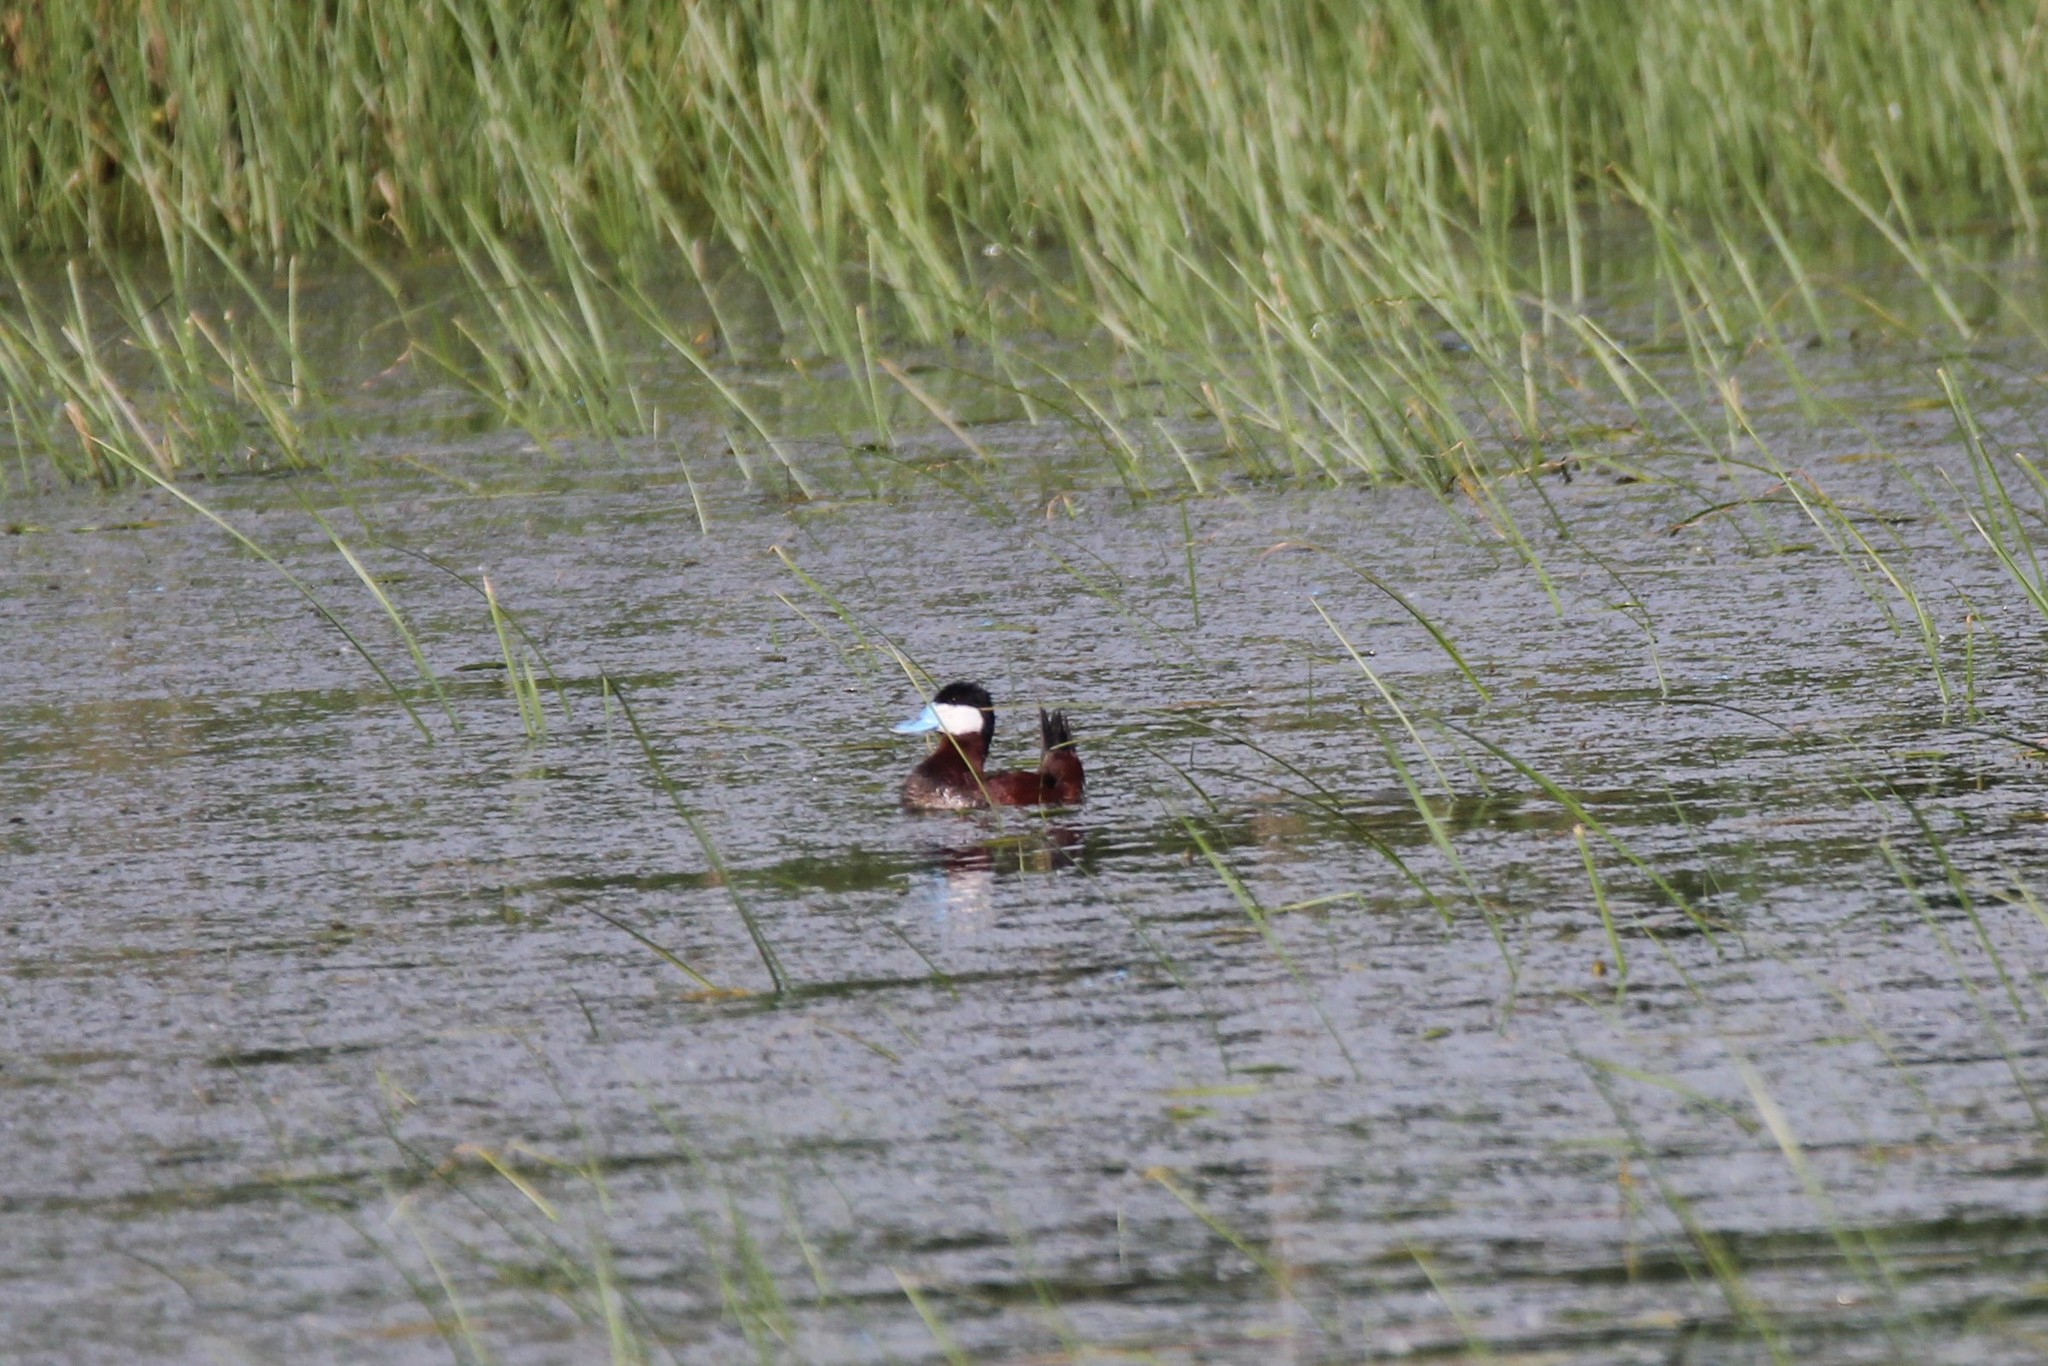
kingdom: Animalia
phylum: Chordata
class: Aves
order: Anseriformes
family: Anatidae
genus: Oxyura
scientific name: Oxyura jamaicensis
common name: Ruddy duck
